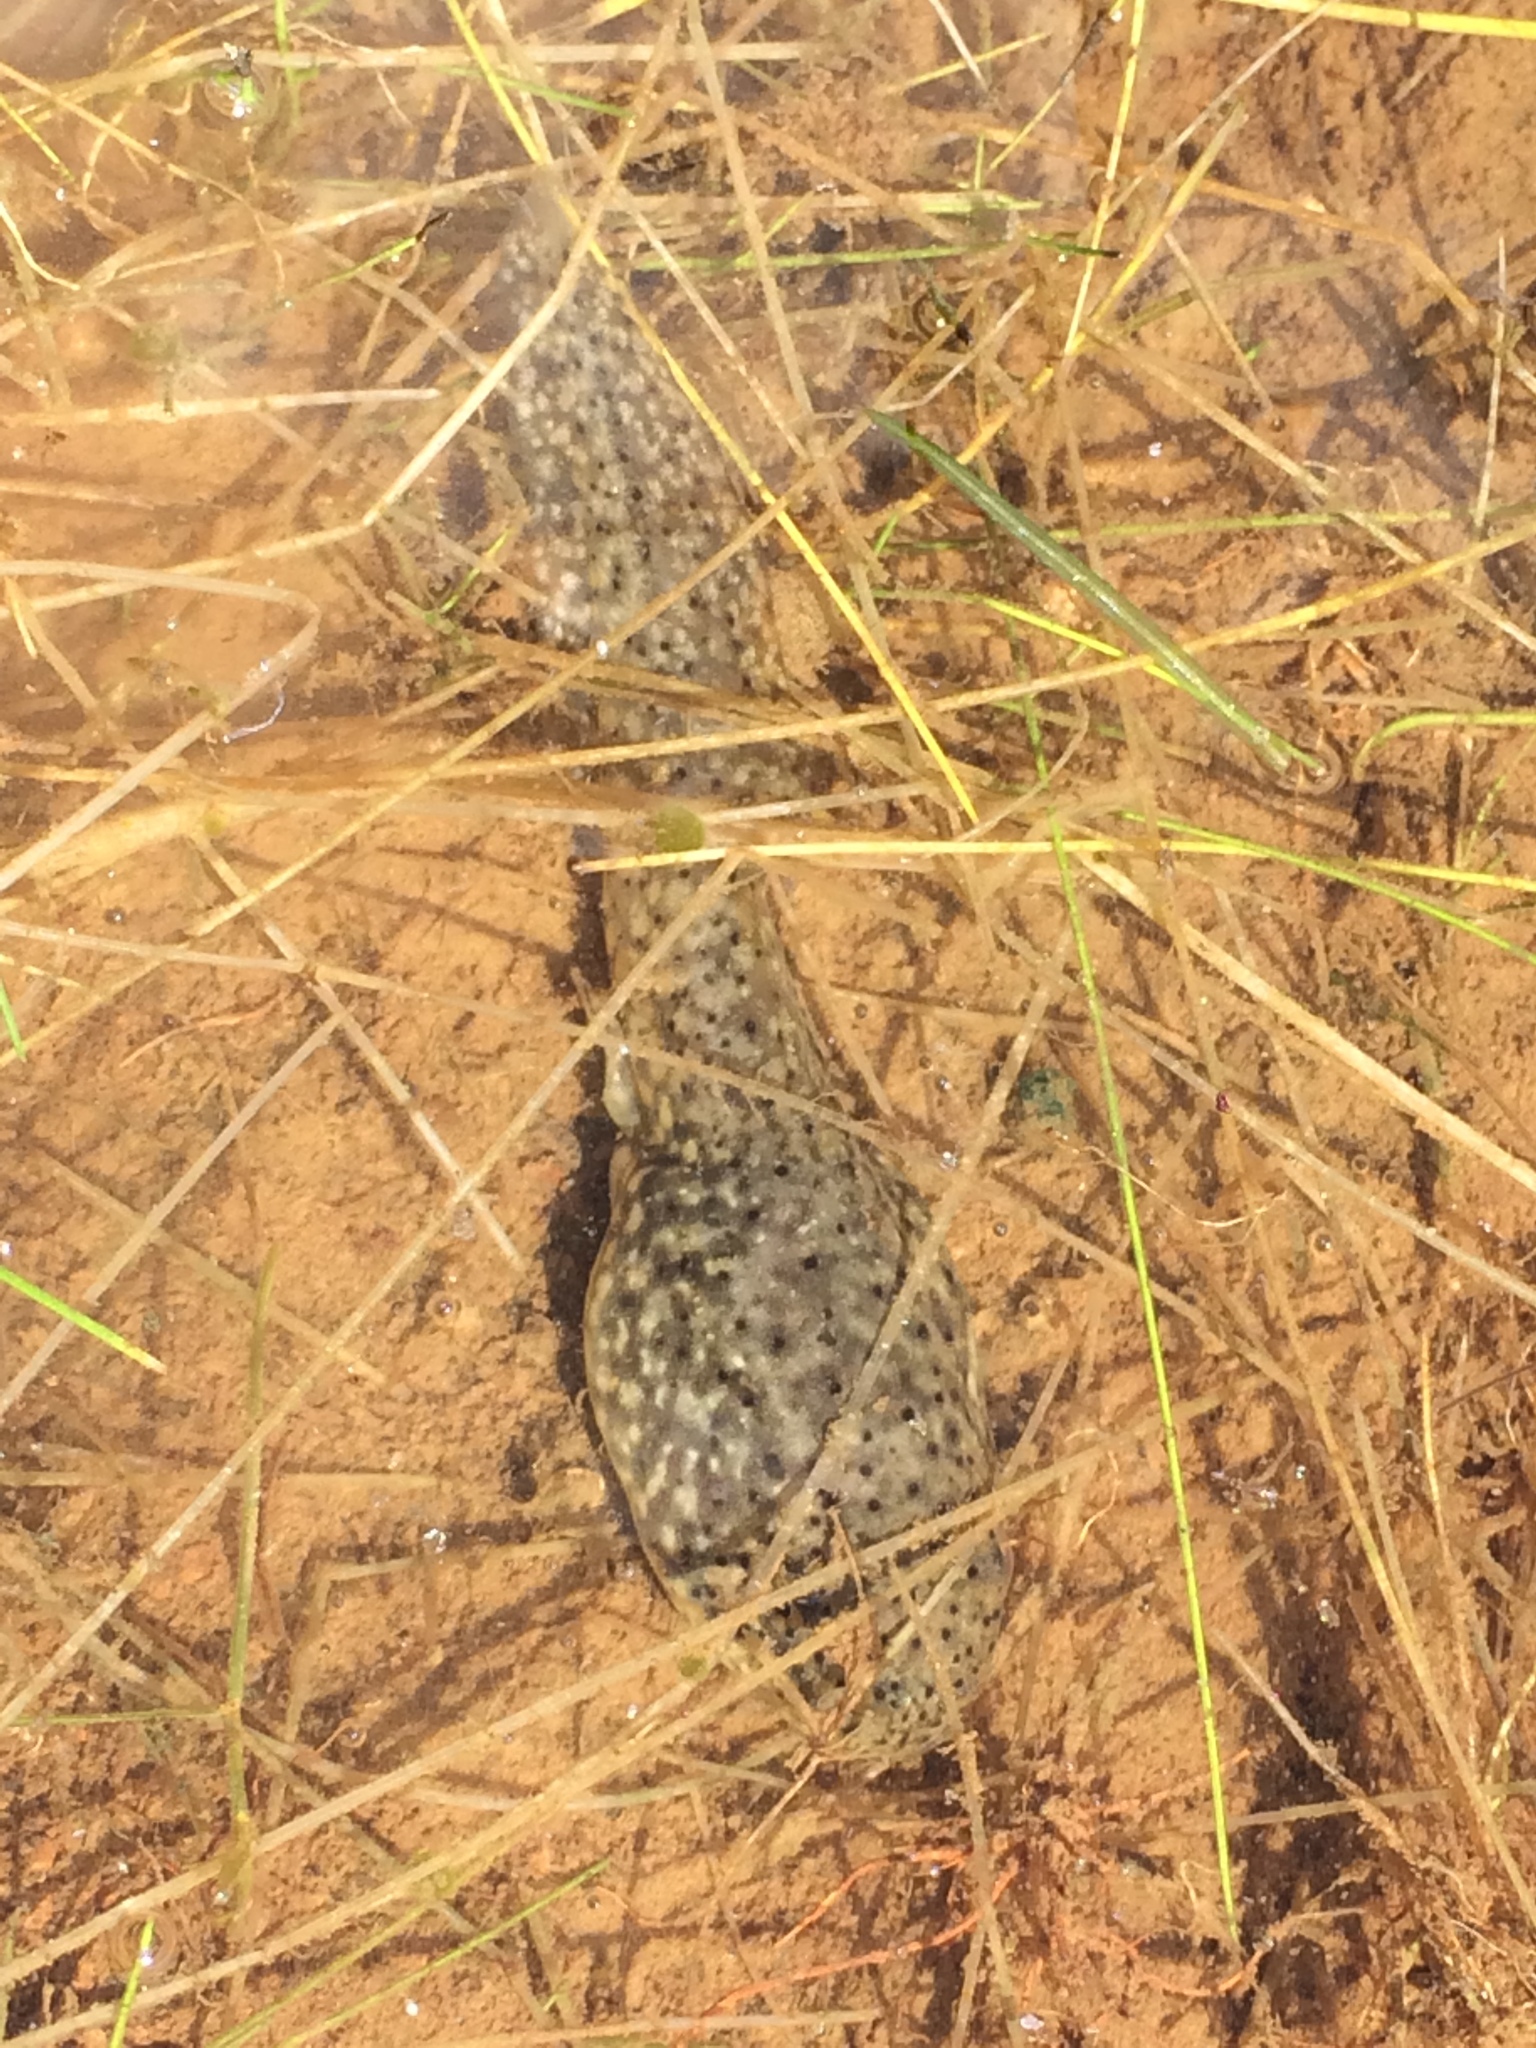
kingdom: Animalia
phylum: Chordata
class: Amphibia
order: Anura
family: Ranidae
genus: Lithobates
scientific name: Lithobates catesbeianus
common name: American bullfrog
